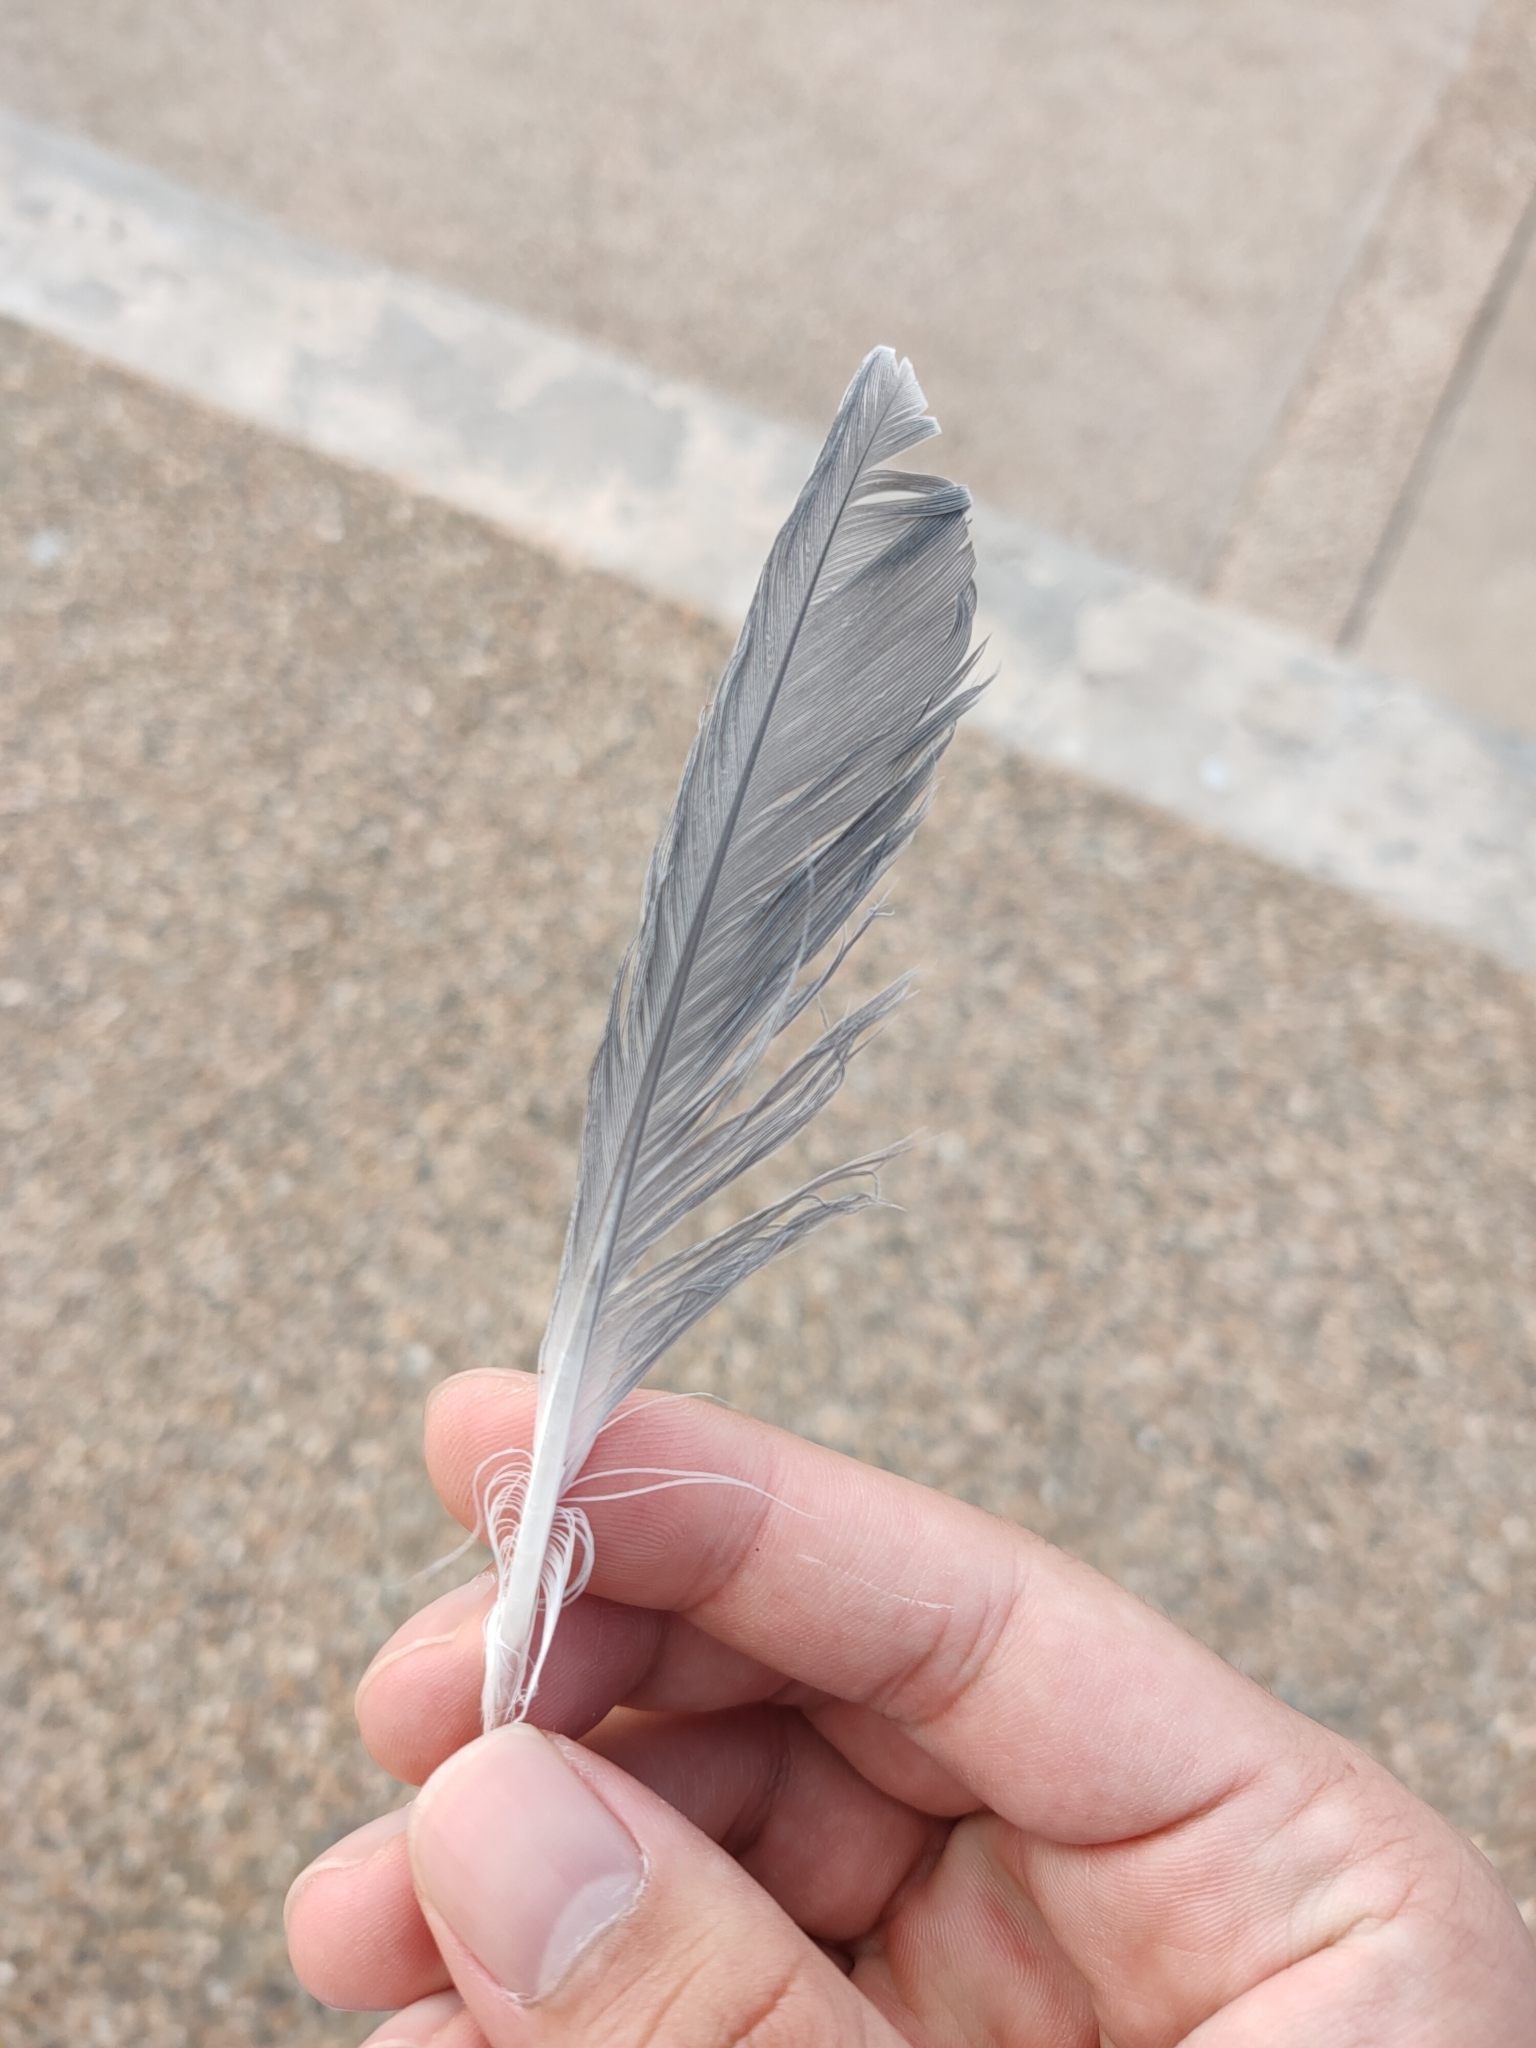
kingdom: Animalia
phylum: Chordata
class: Aves
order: Charadriiformes
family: Laridae
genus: Chroicocephalus
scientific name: Chroicocephalus novaehollandiae
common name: Silver gull
